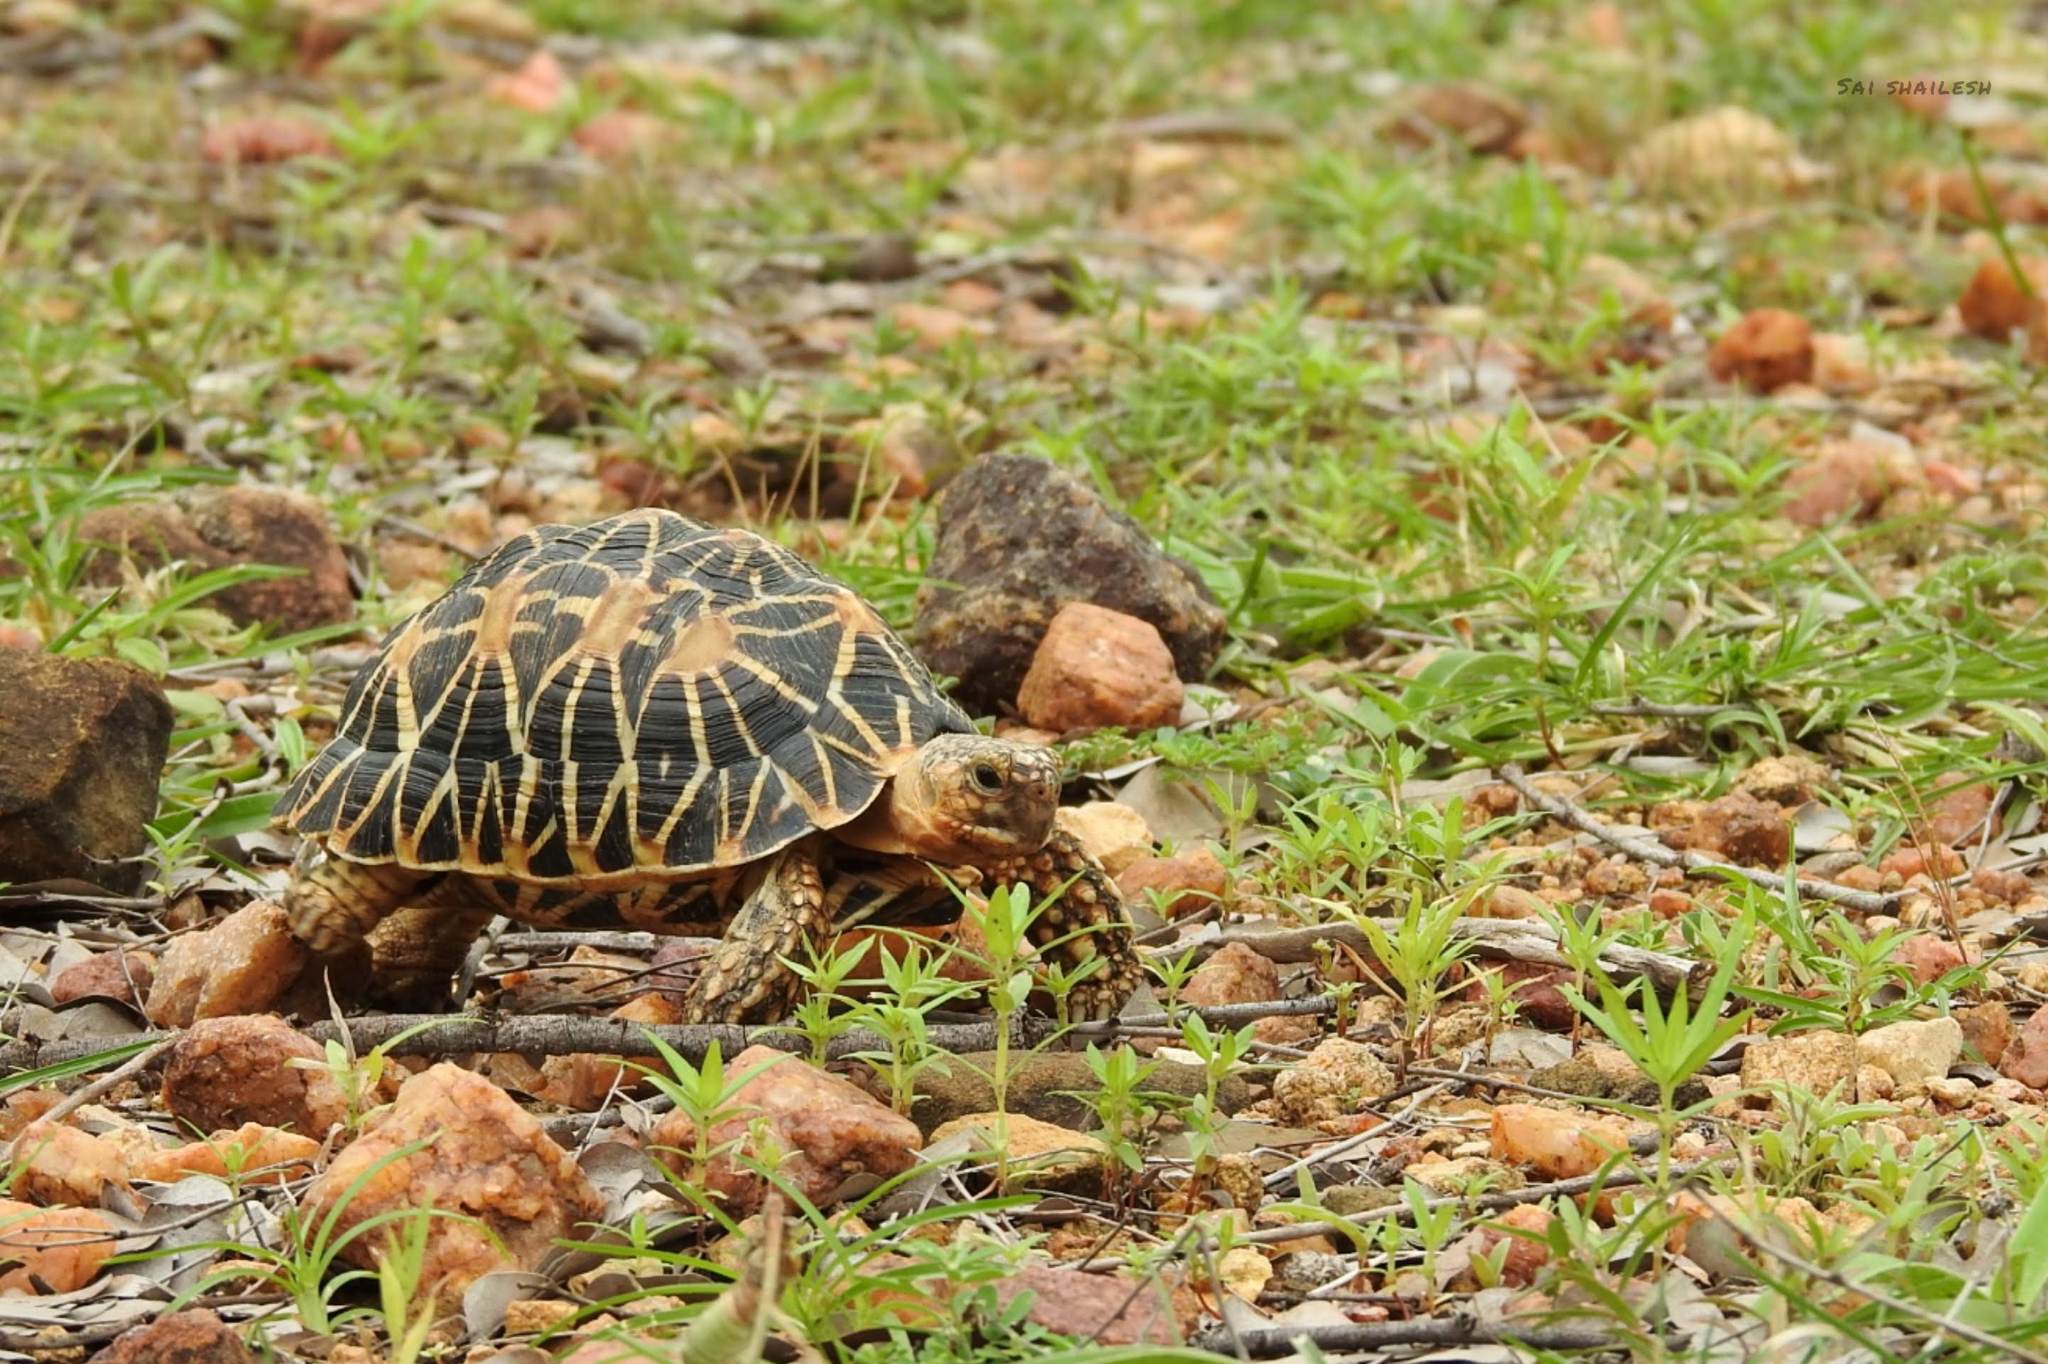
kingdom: Animalia
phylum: Chordata
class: Testudines
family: Testudinidae
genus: Geochelone
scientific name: Geochelone elegans
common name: Indian star tortoise
